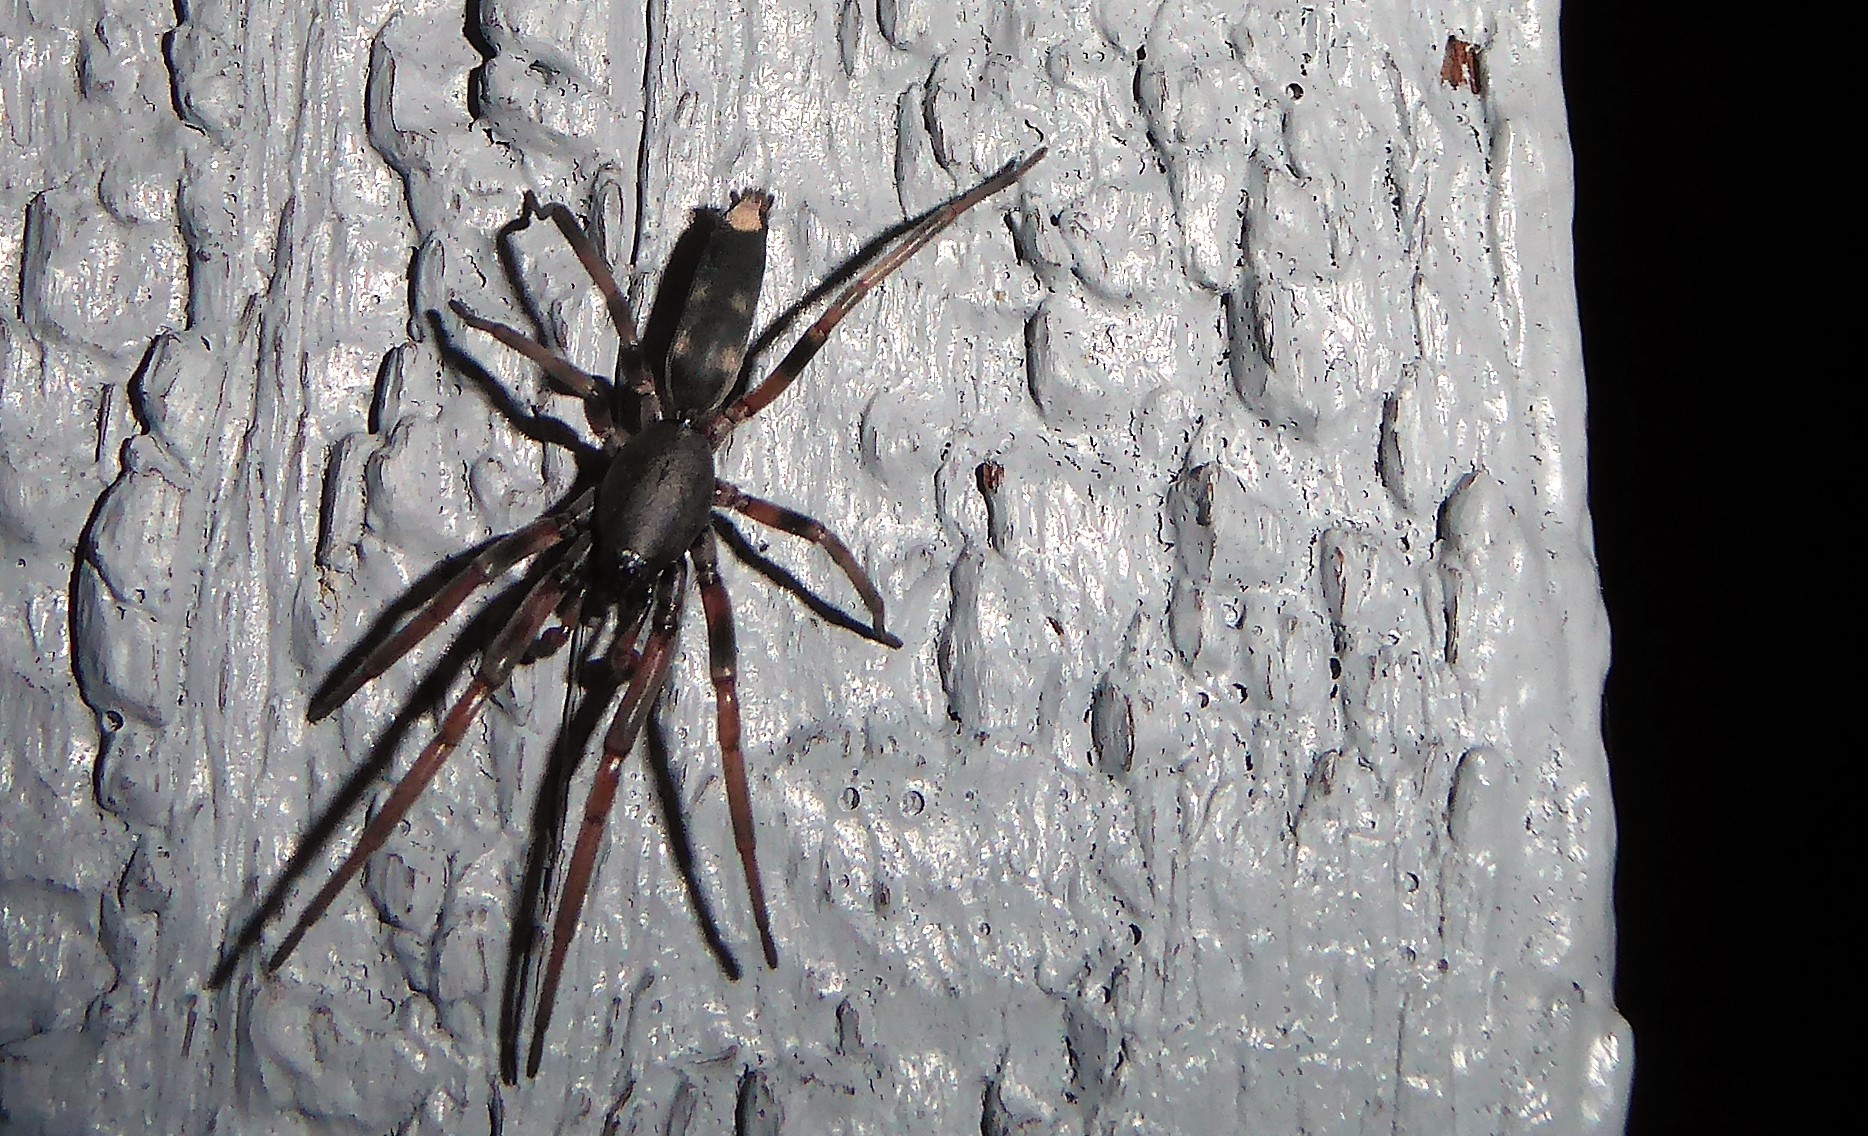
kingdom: Animalia
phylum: Arthropoda
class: Arachnida
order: Araneae
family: Lamponidae
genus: Lampona
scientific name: Lampona cylindrata
